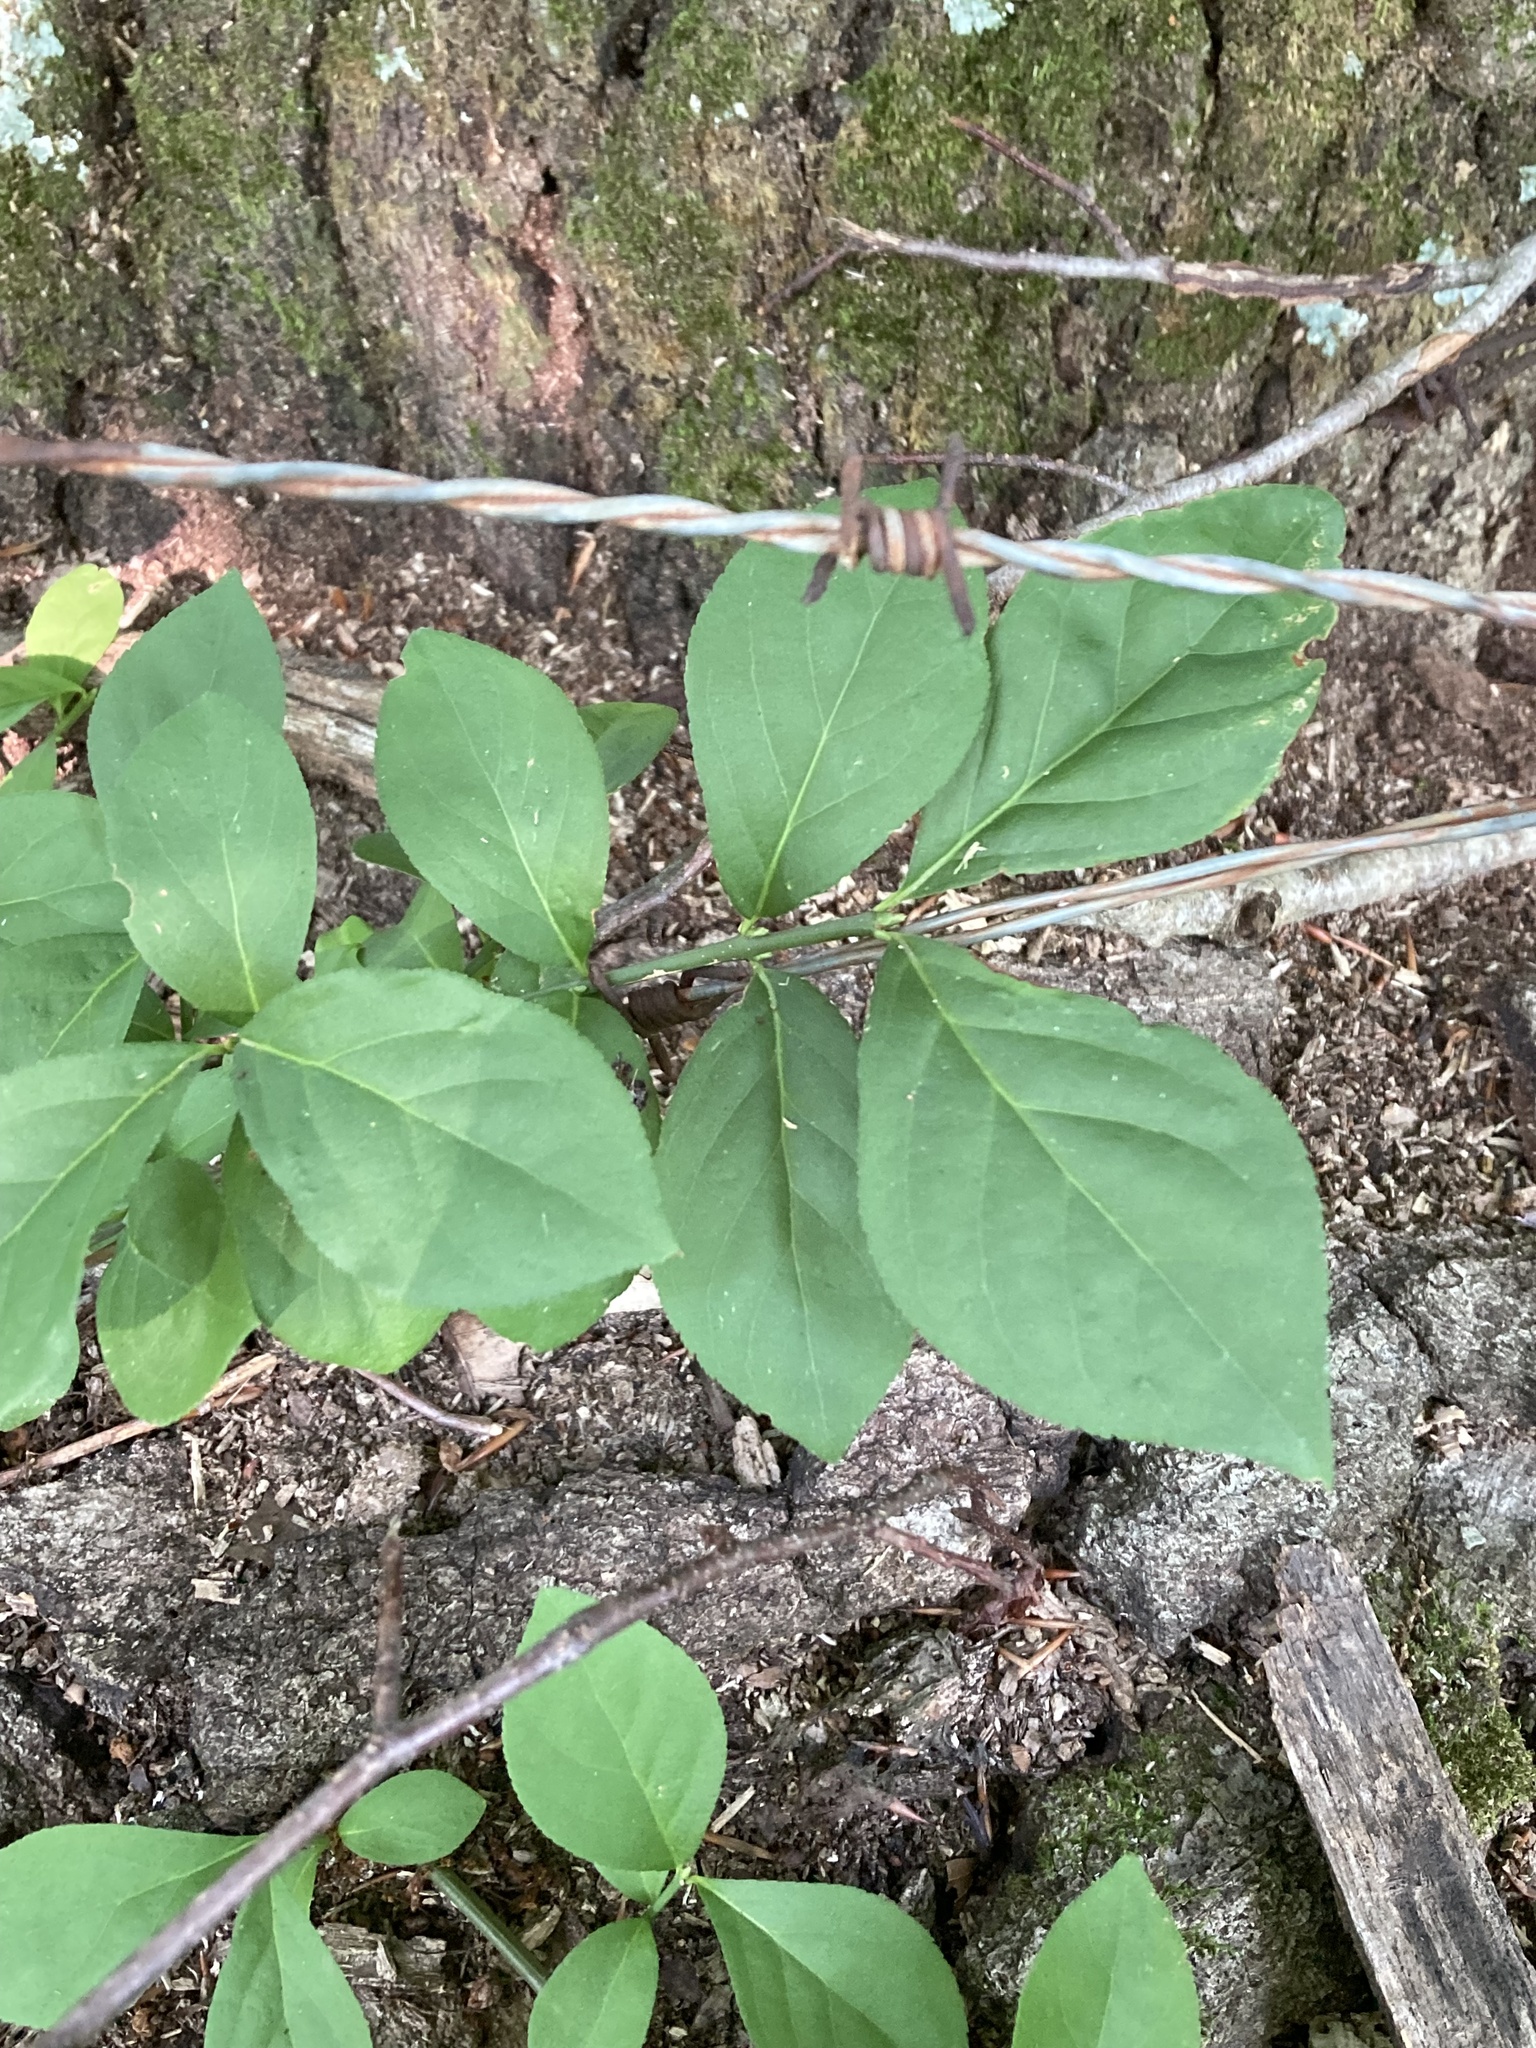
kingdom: Plantae
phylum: Tracheophyta
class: Magnoliopsida
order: Celastrales
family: Celastraceae
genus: Euonymus
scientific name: Euonymus obovatus
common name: Running strawberry-bush
